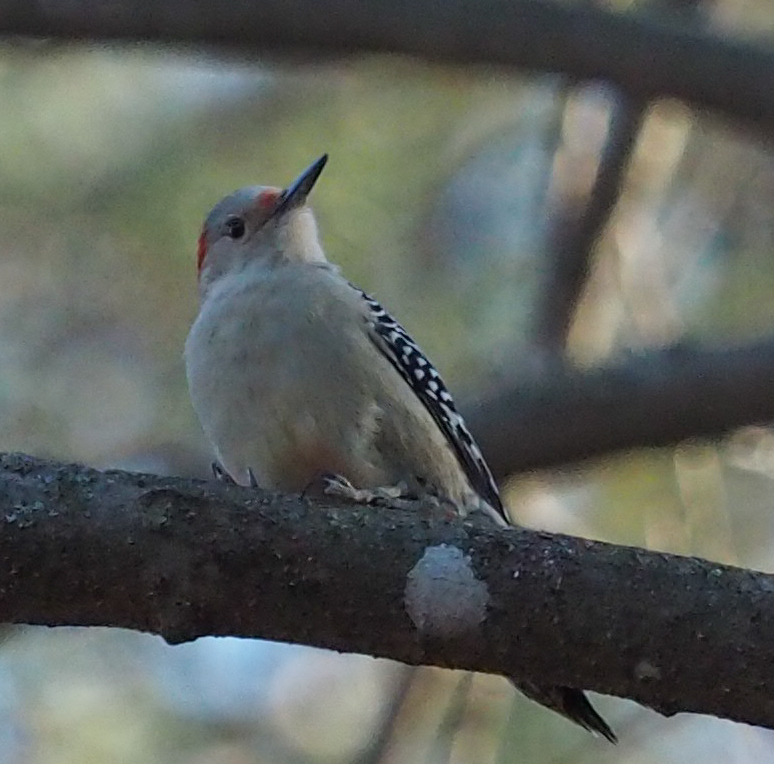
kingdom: Animalia
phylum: Chordata
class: Aves
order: Piciformes
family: Picidae
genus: Melanerpes
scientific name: Melanerpes carolinus
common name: Red-bellied woodpecker
